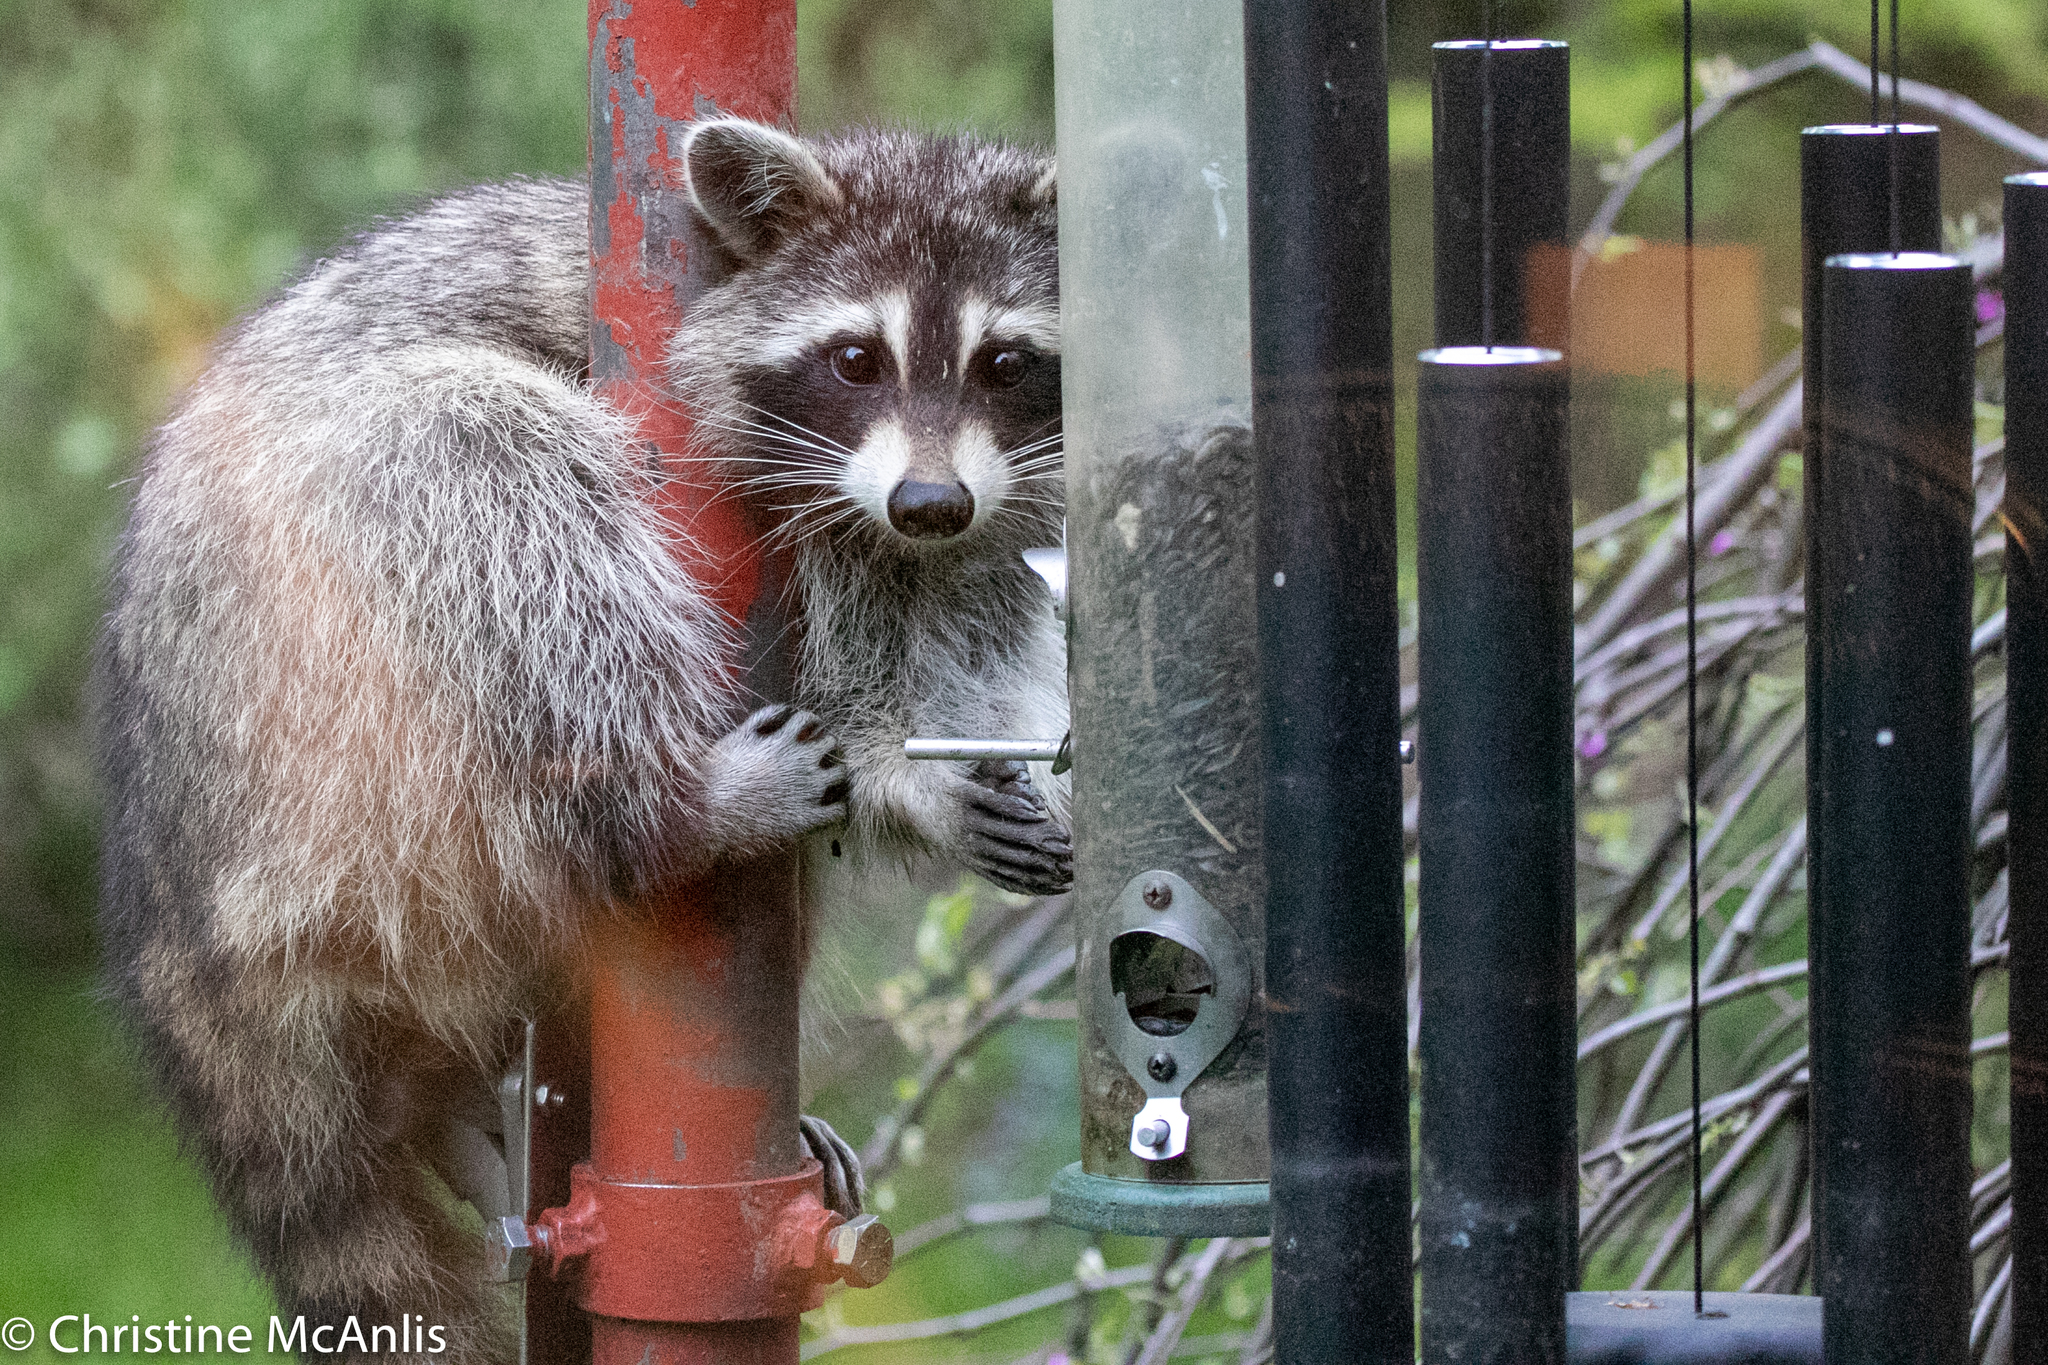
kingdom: Animalia
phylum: Chordata
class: Mammalia
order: Carnivora
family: Procyonidae
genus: Procyon
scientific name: Procyon lotor
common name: Raccoon
